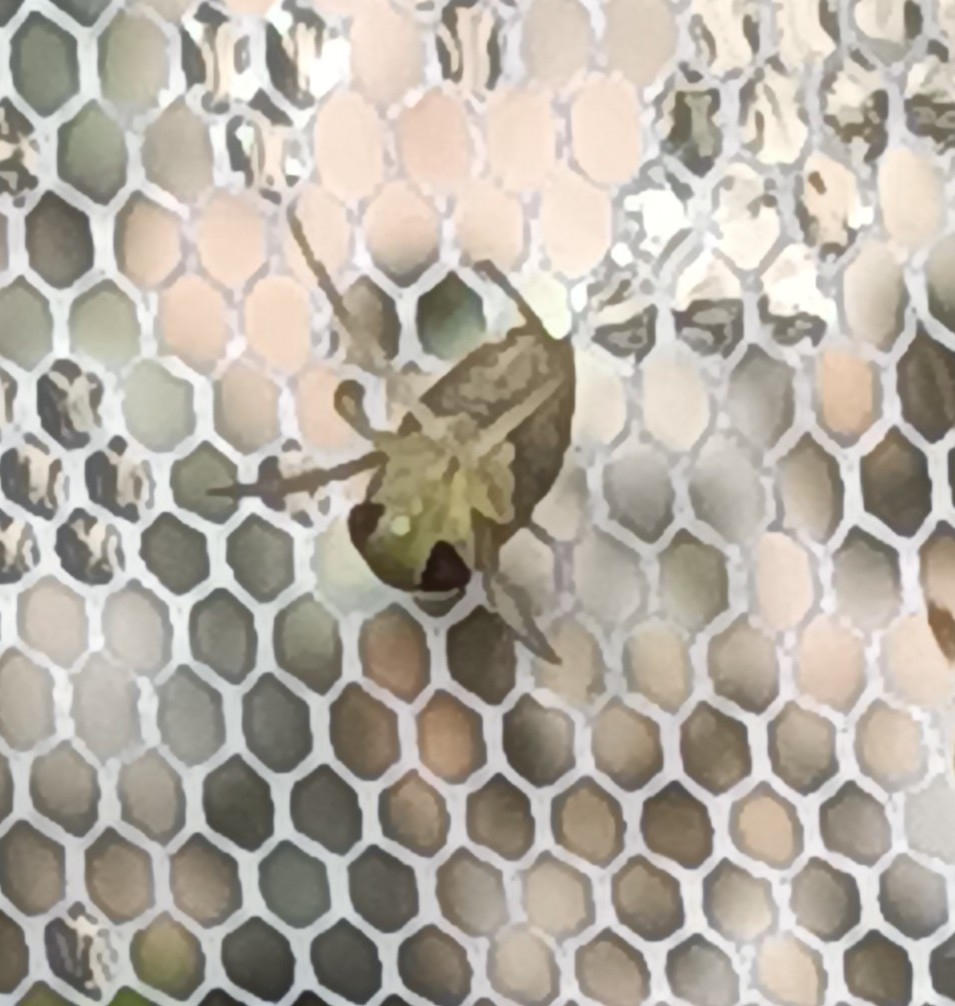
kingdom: Animalia
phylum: Arthropoda
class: Insecta
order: Hemiptera
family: Corixidae
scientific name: Corixidae
